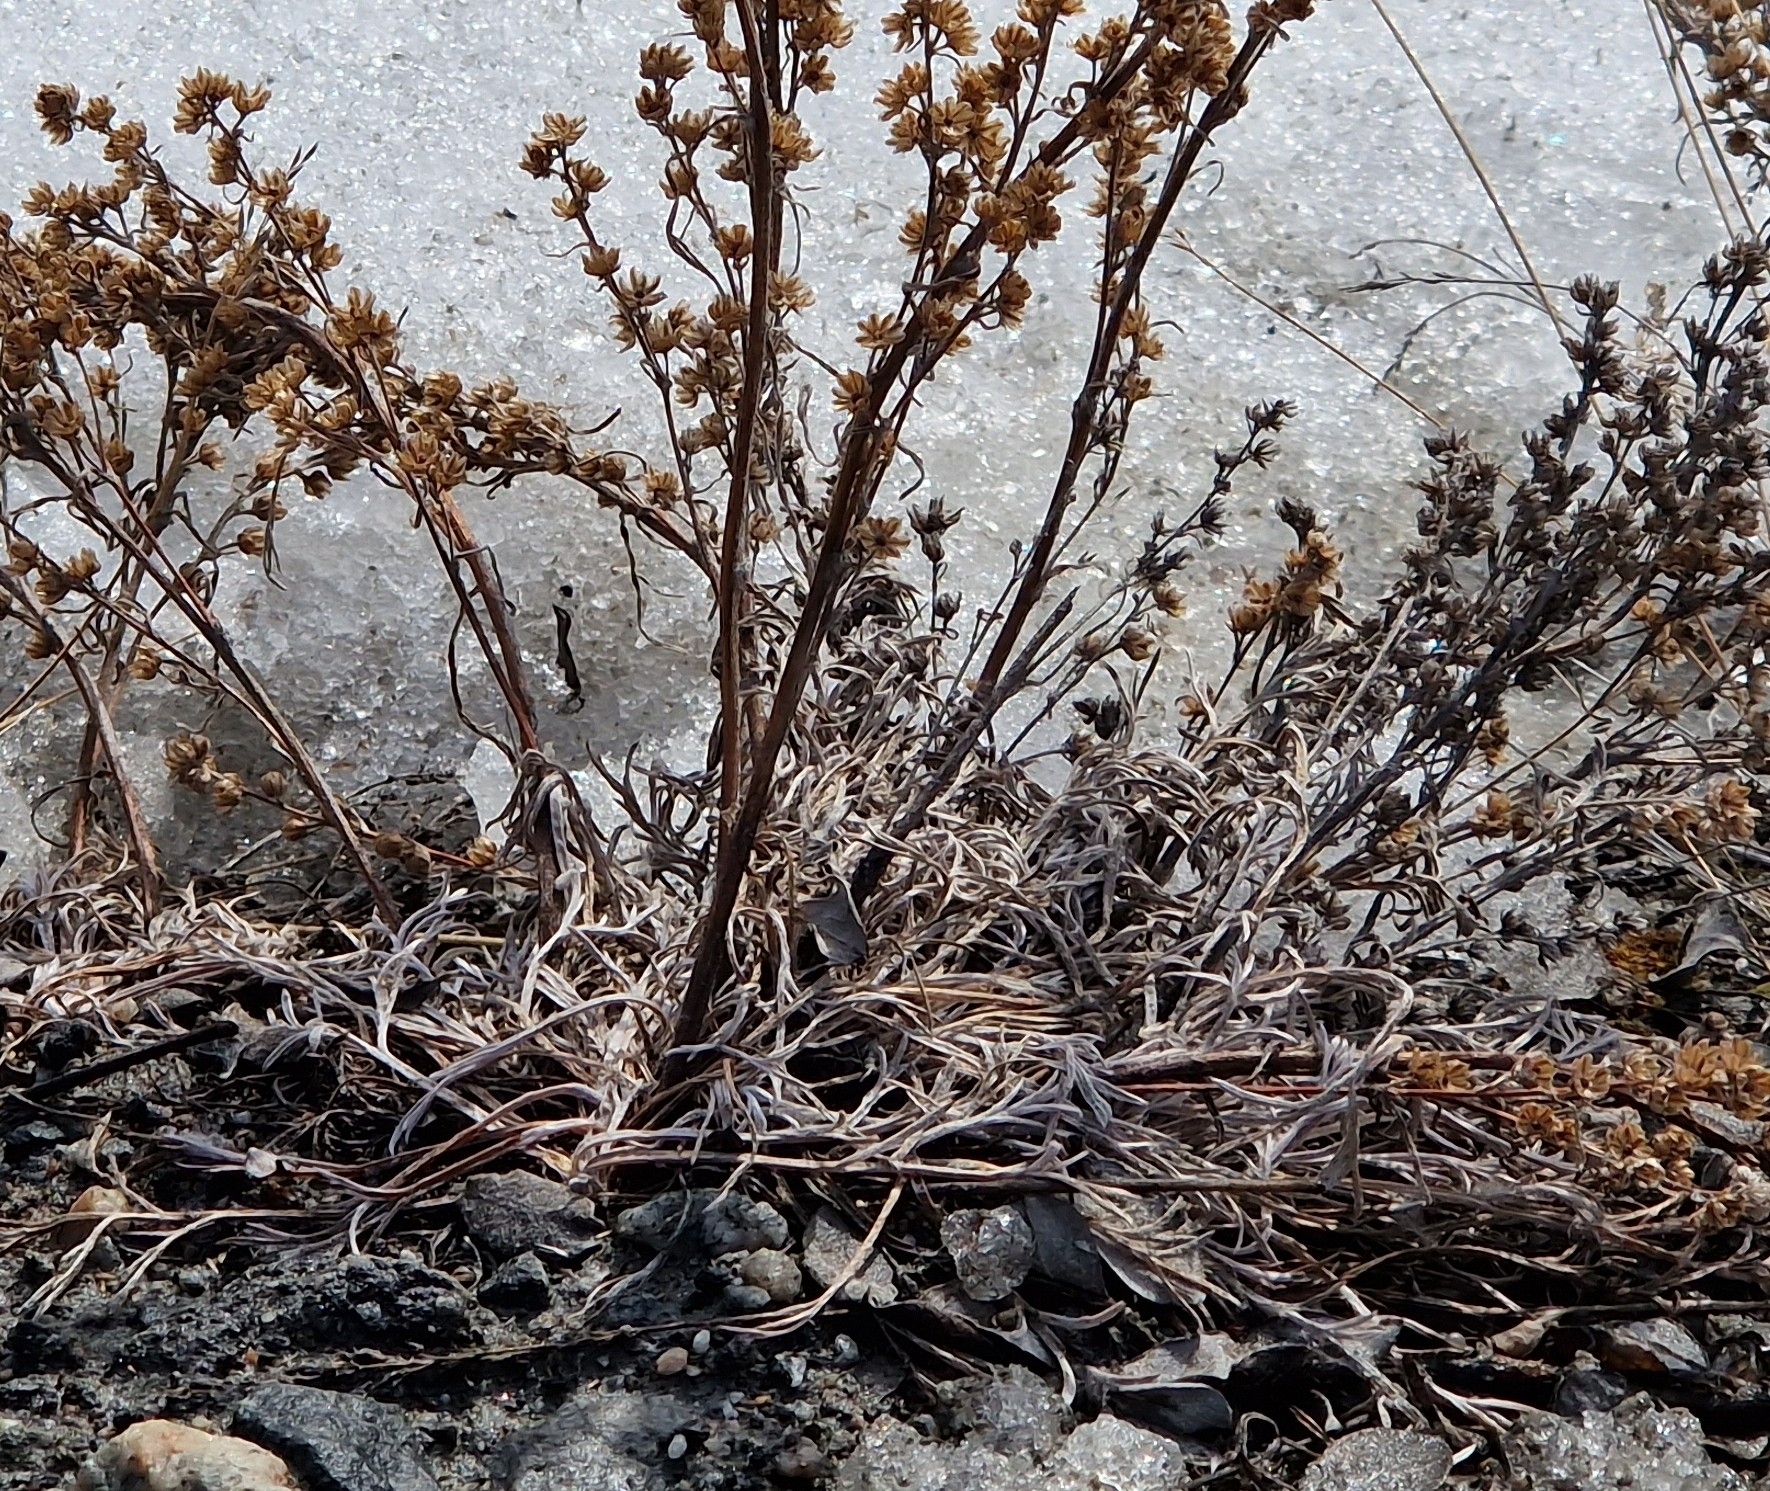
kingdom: Plantae
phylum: Tracheophyta
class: Magnoliopsida
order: Asterales
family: Asteraceae
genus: Artemisia
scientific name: Artemisia borealis
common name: Boreal sage
